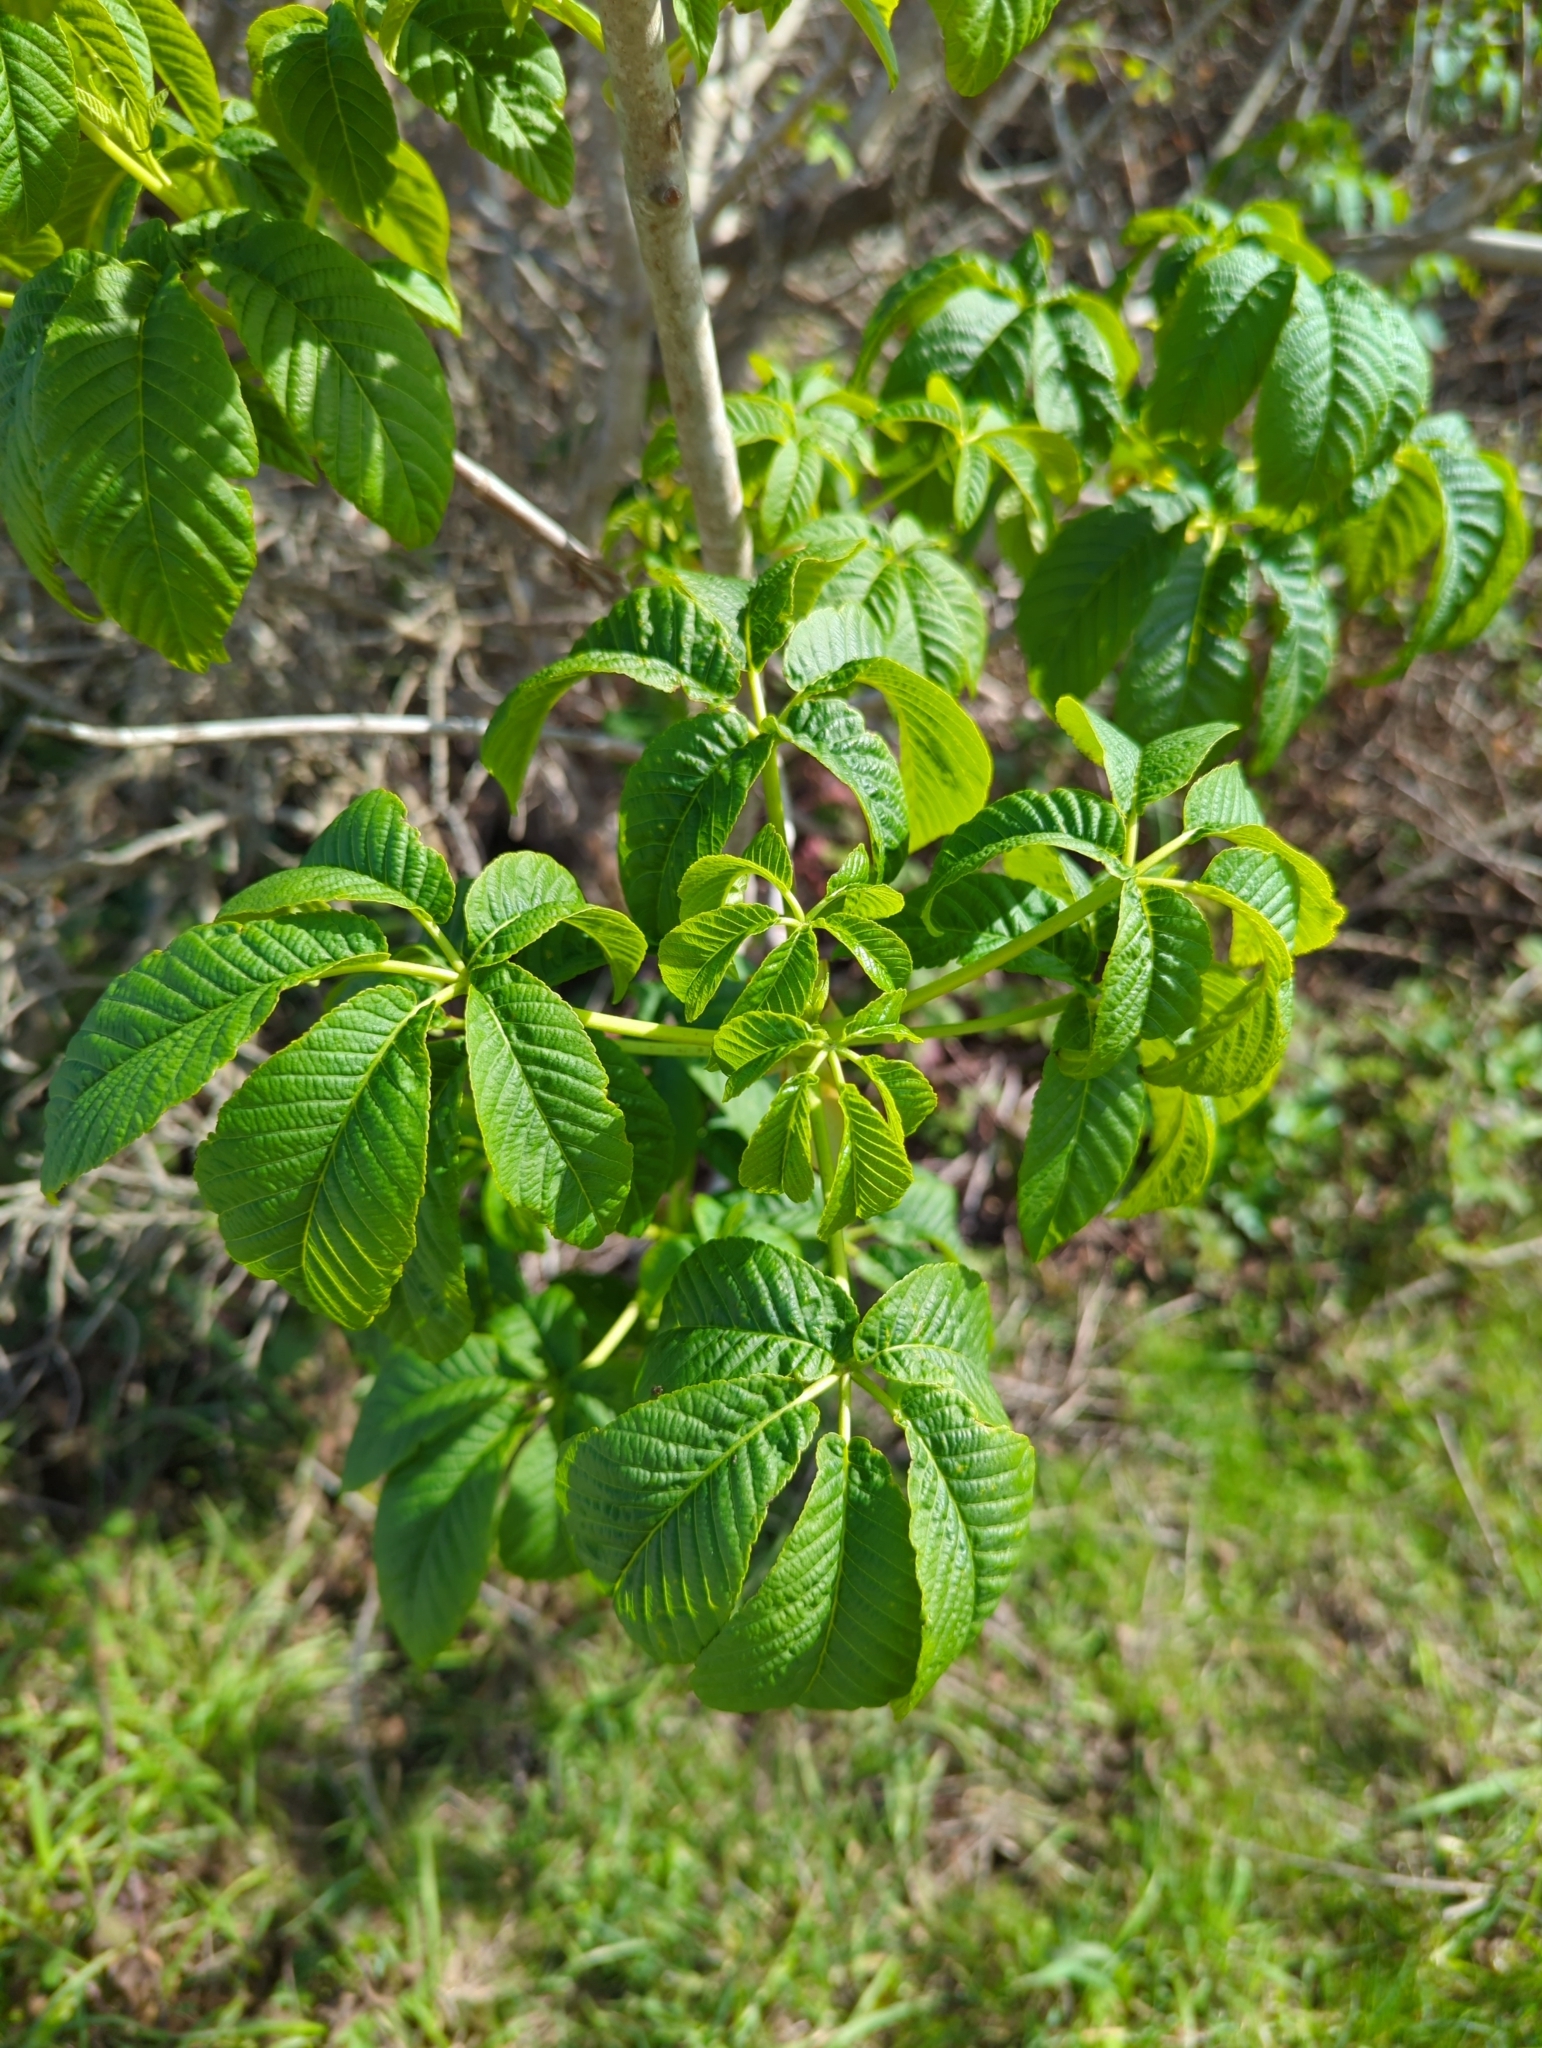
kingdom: Plantae
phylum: Tracheophyta
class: Magnoliopsida
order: Sapindales
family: Sapindaceae
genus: Aesculus
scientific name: Aesculus californica
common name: California buckeye
